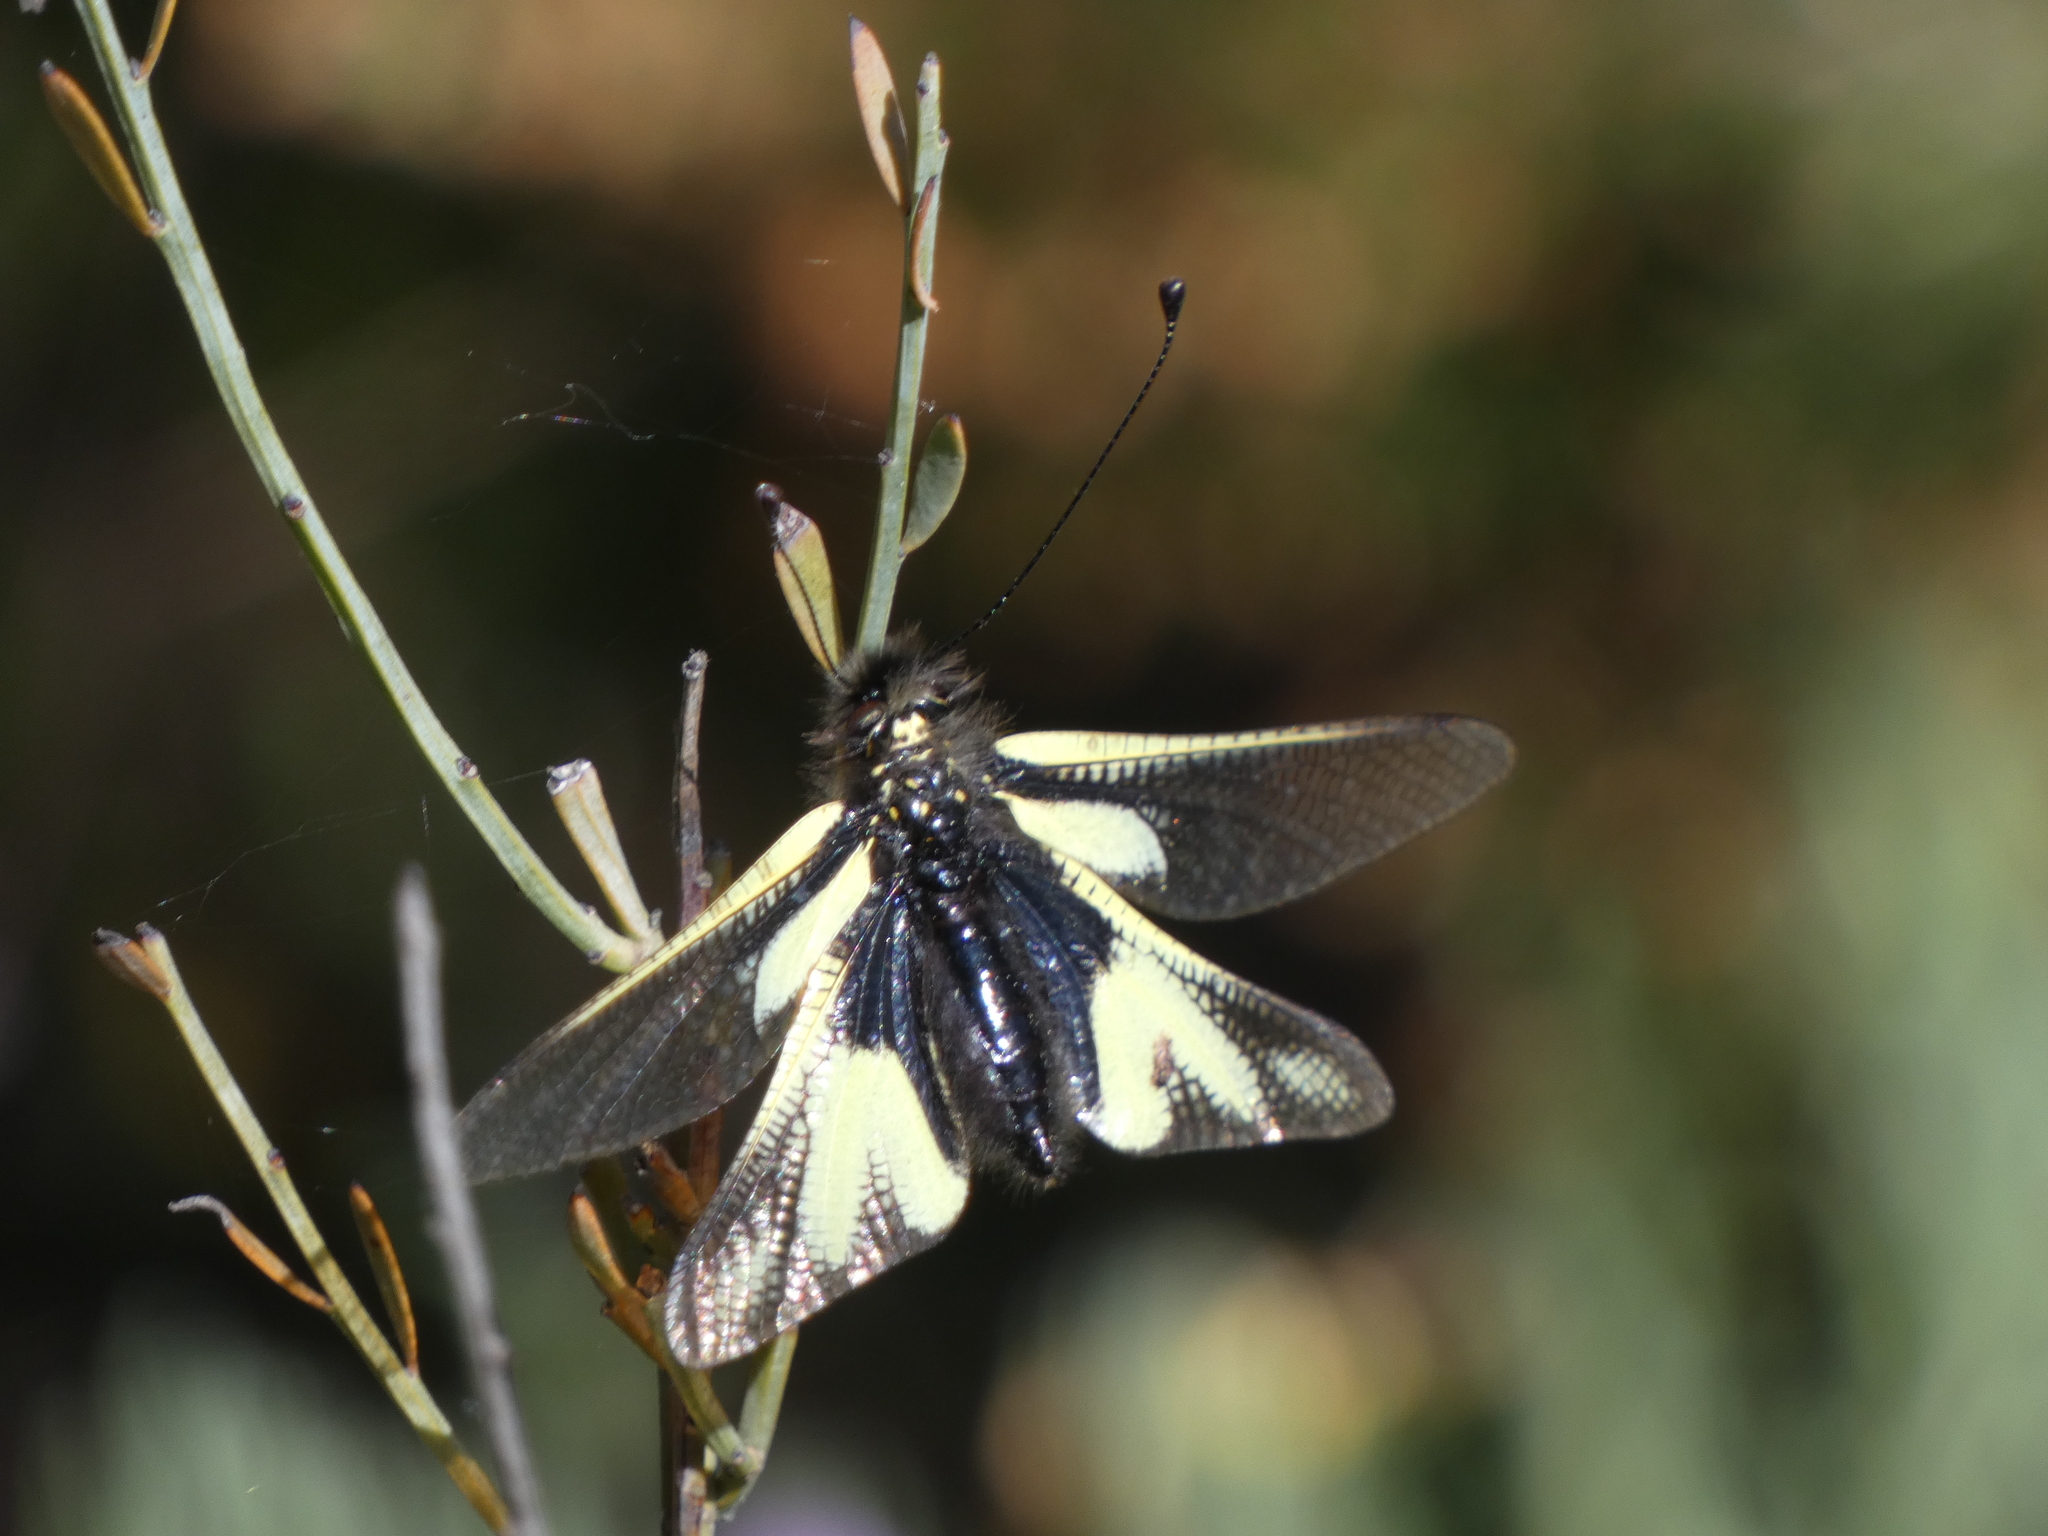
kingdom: Animalia
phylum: Arthropoda
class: Insecta
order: Neuroptera
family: Ascalaphidae
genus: Libelloides
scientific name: Libelloides coccajus
